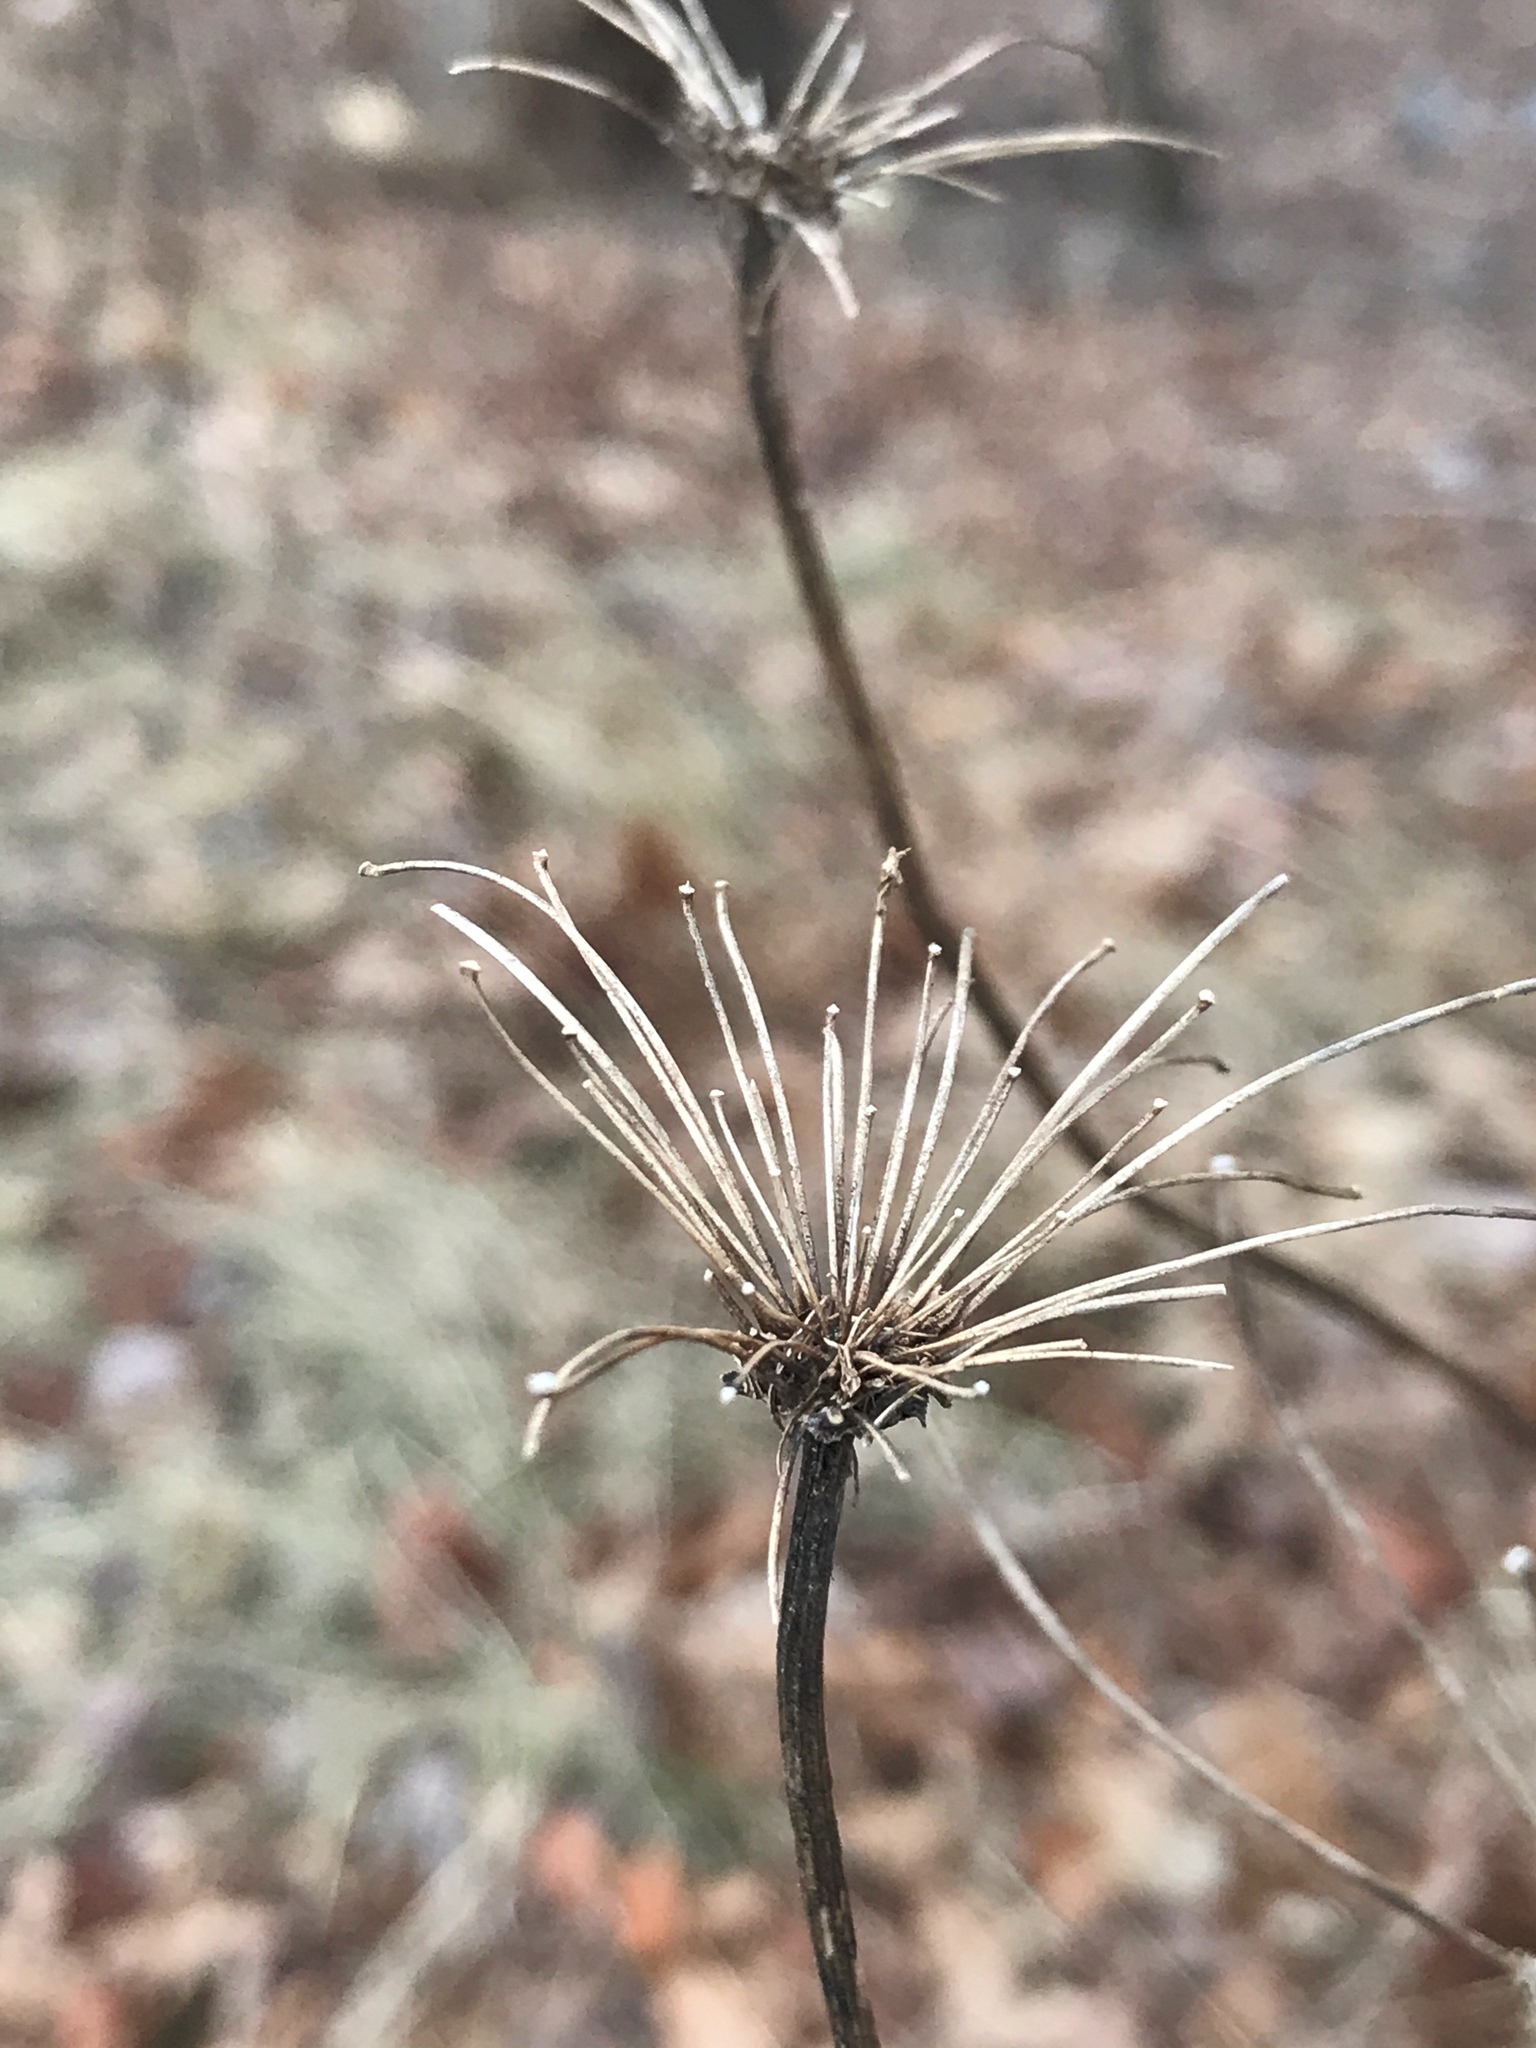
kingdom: Plantae
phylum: Tracheophyta
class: Magnoliopsida
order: Apiales
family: Apiaceae
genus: Daucus
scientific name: Daucus carota
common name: Wild carrot
